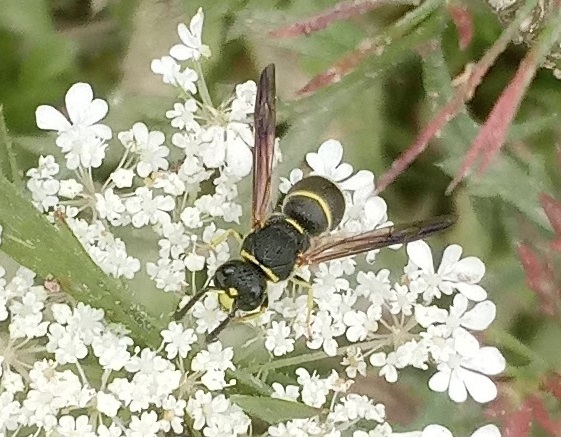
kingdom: Animalia
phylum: Arthropoda
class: Insecta
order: Hymenoptera
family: Eumenidae
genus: Euodynerus
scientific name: Euodynerus foraminatus
